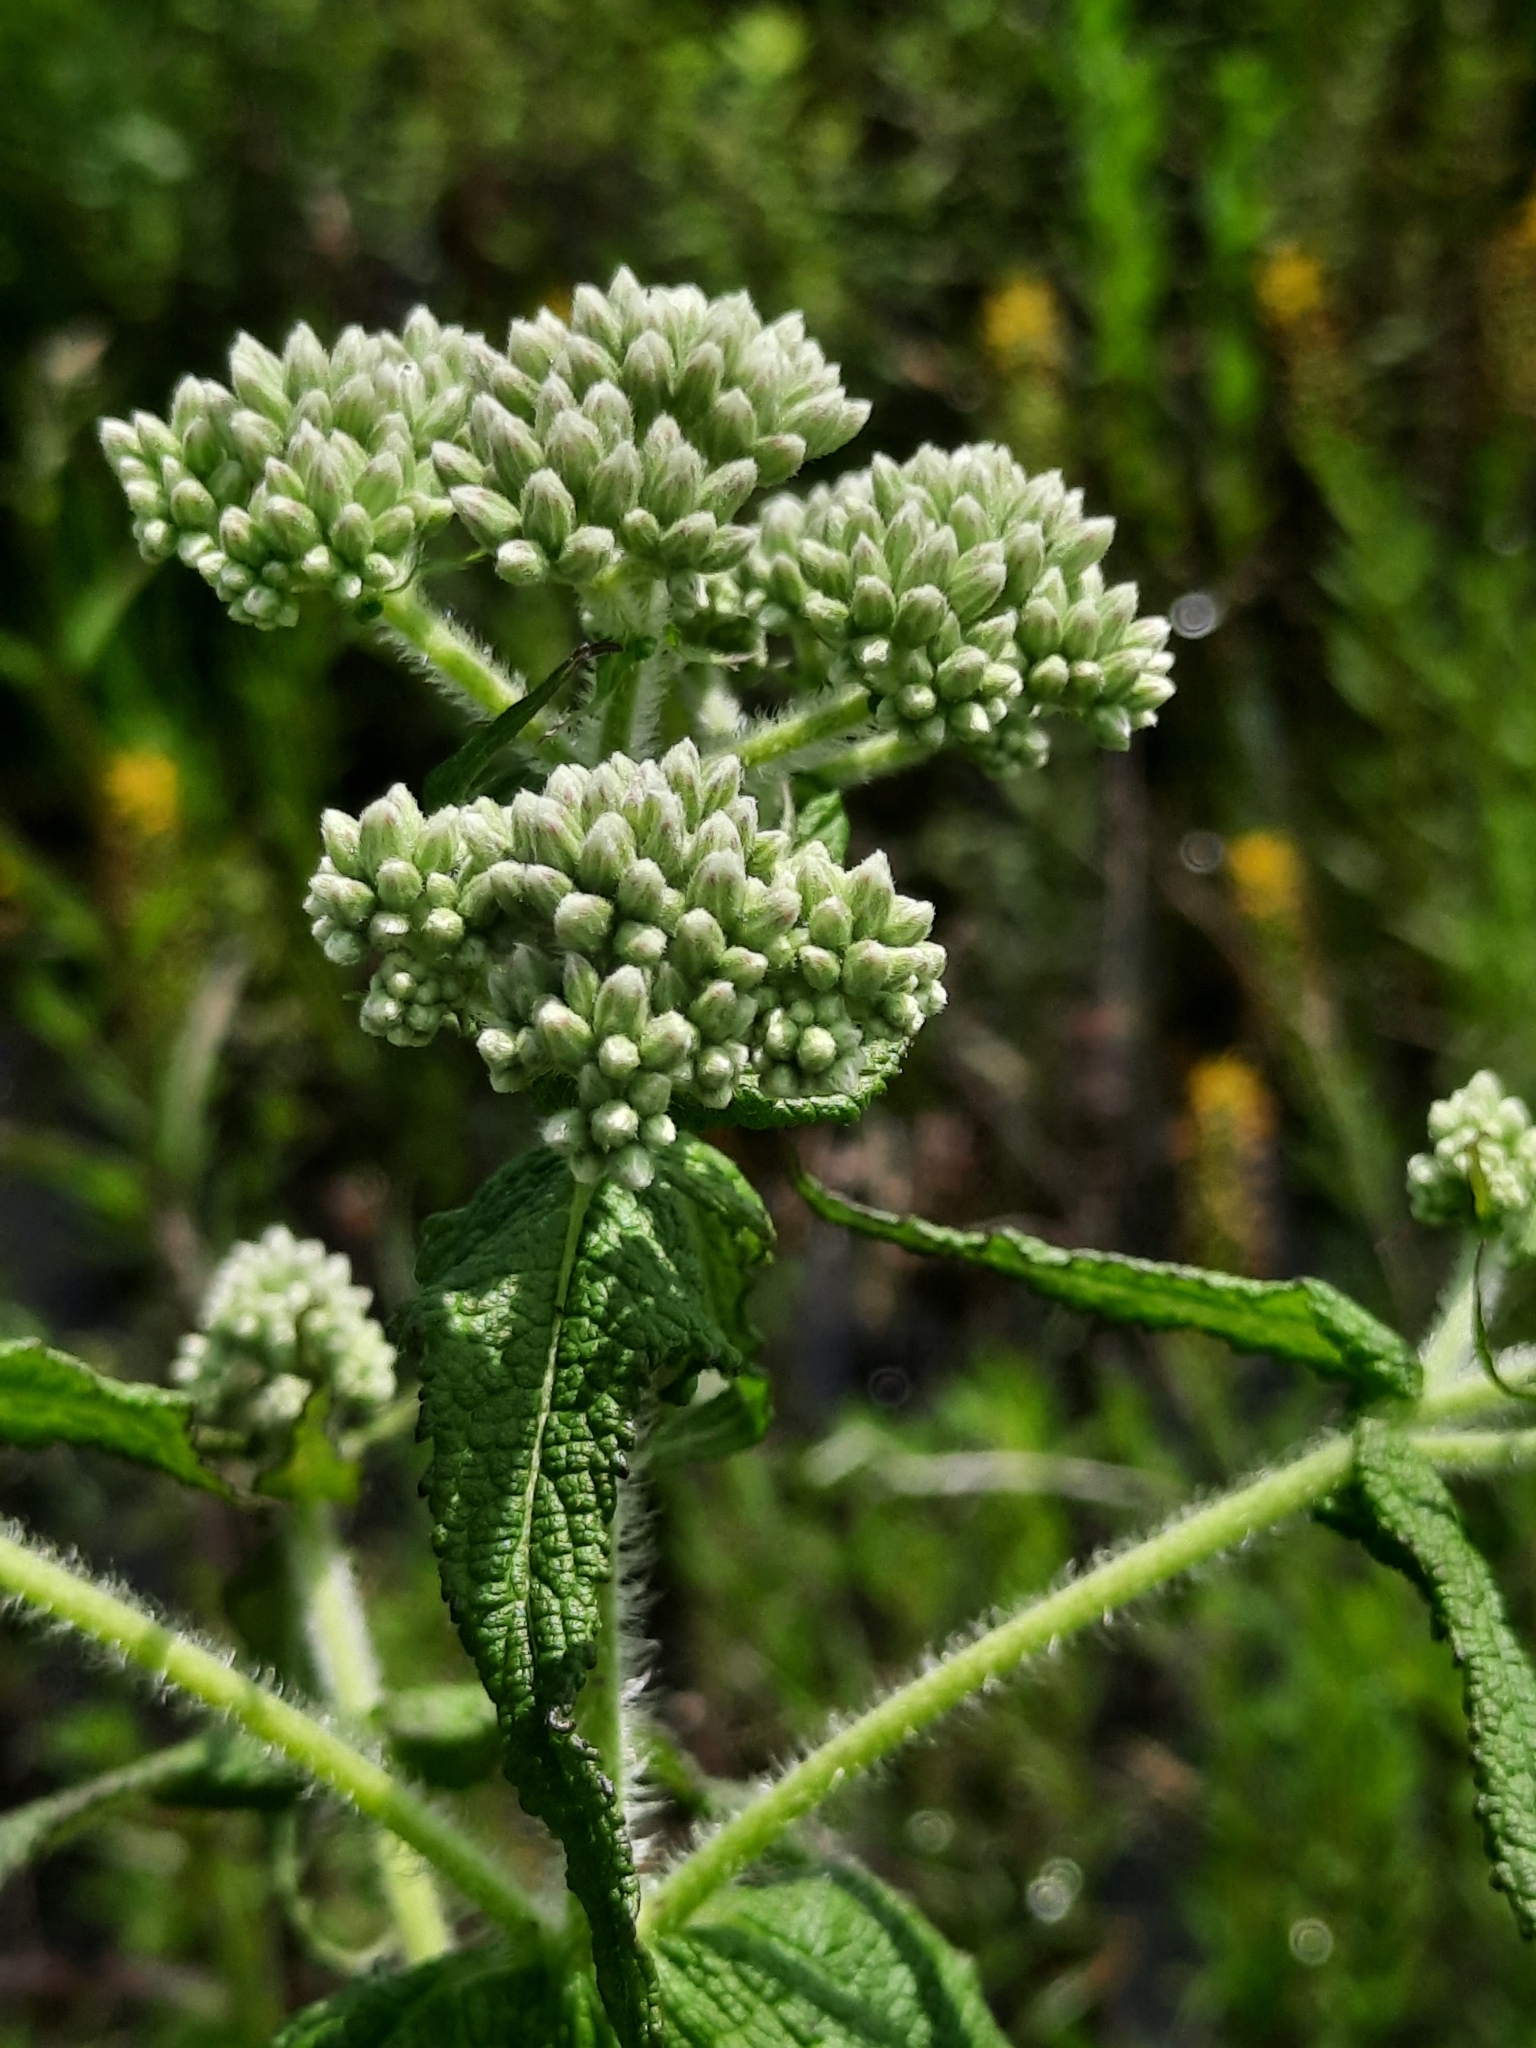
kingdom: Plantae
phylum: Tracheophyta
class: Magnoliopsida
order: Asterales
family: Asteraceae
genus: Eupatorium
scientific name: Eupatorium perfoliatum
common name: Boneset
